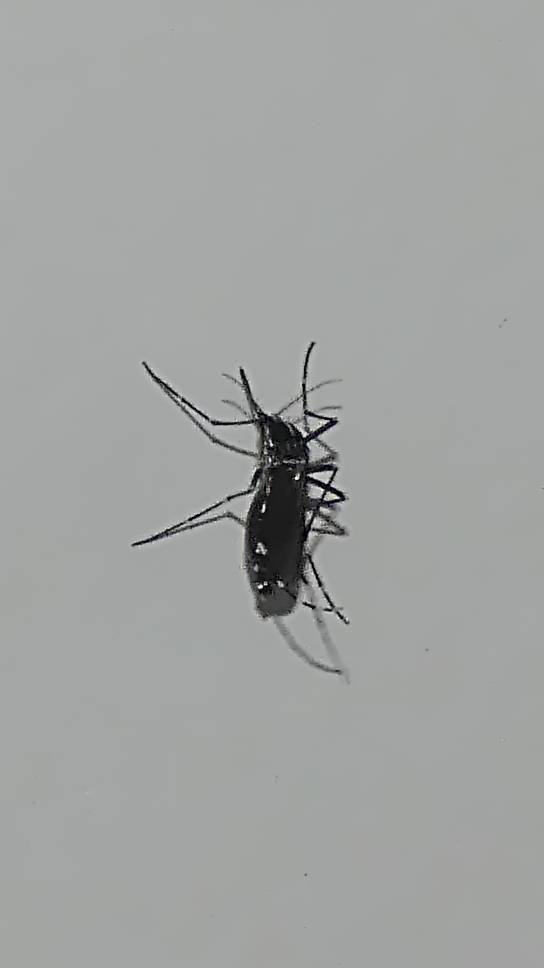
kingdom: Animalia
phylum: Arthropoda
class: Insecta
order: Diptera
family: Culicidae
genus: Aedes
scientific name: Aedes albopictus
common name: Tiger mosquito
